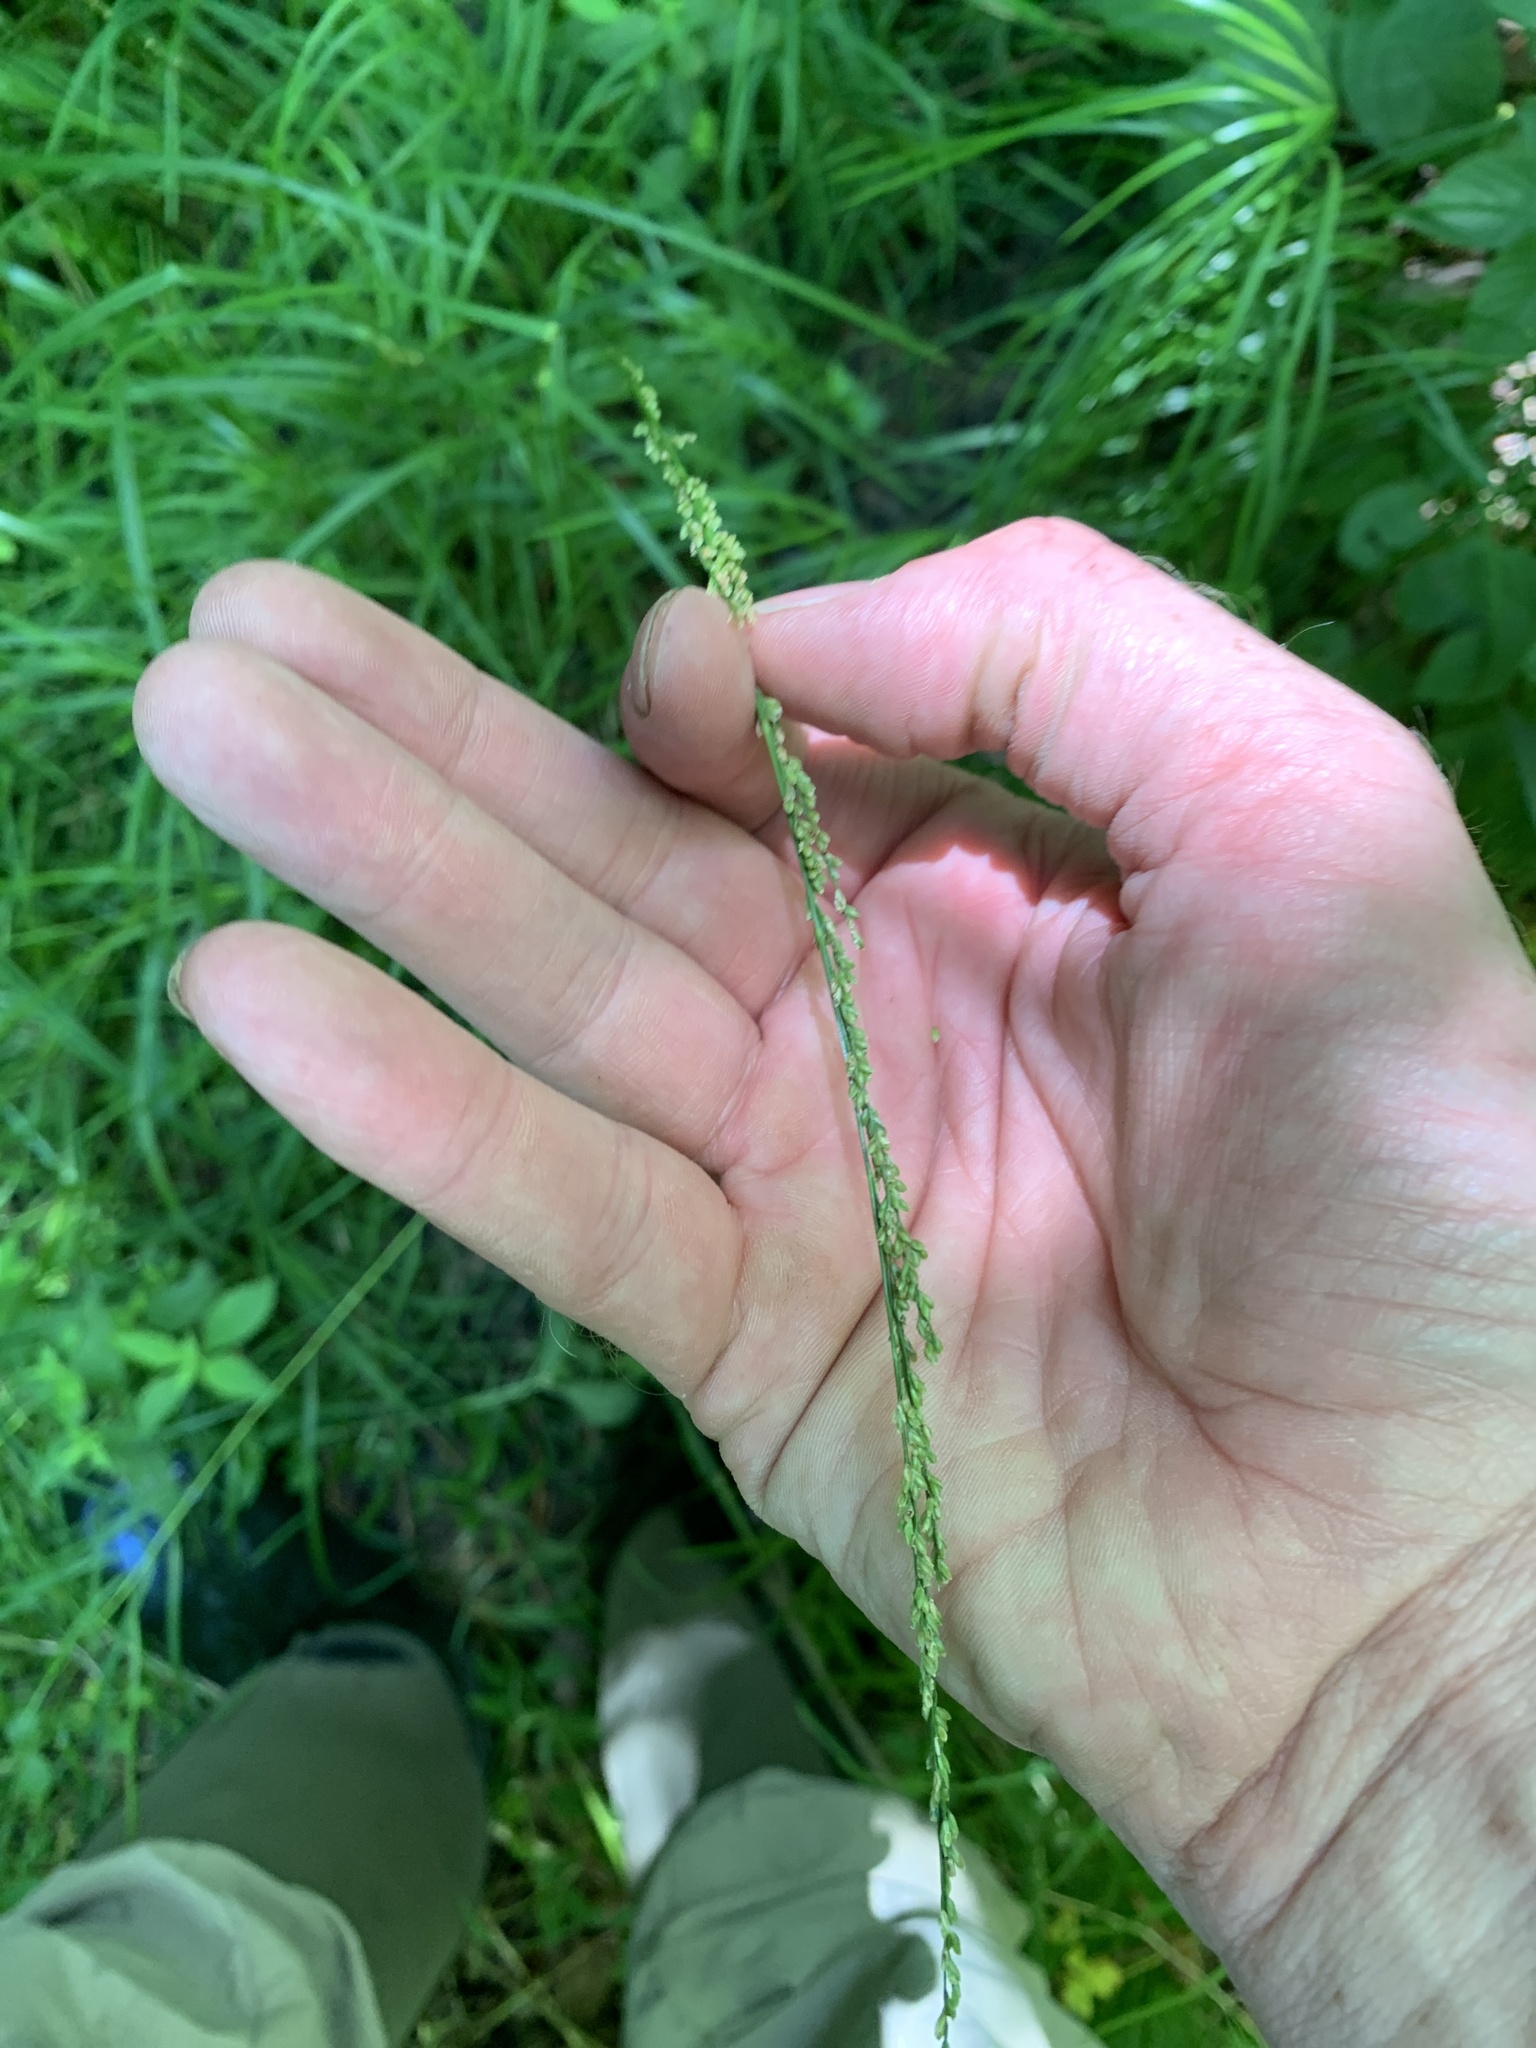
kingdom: Plantae
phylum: Tracheophyta
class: Liliopsida
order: Poales
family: Poaceae
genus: Glyceria
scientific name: Glyceria melicaria
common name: Long mannagrass
